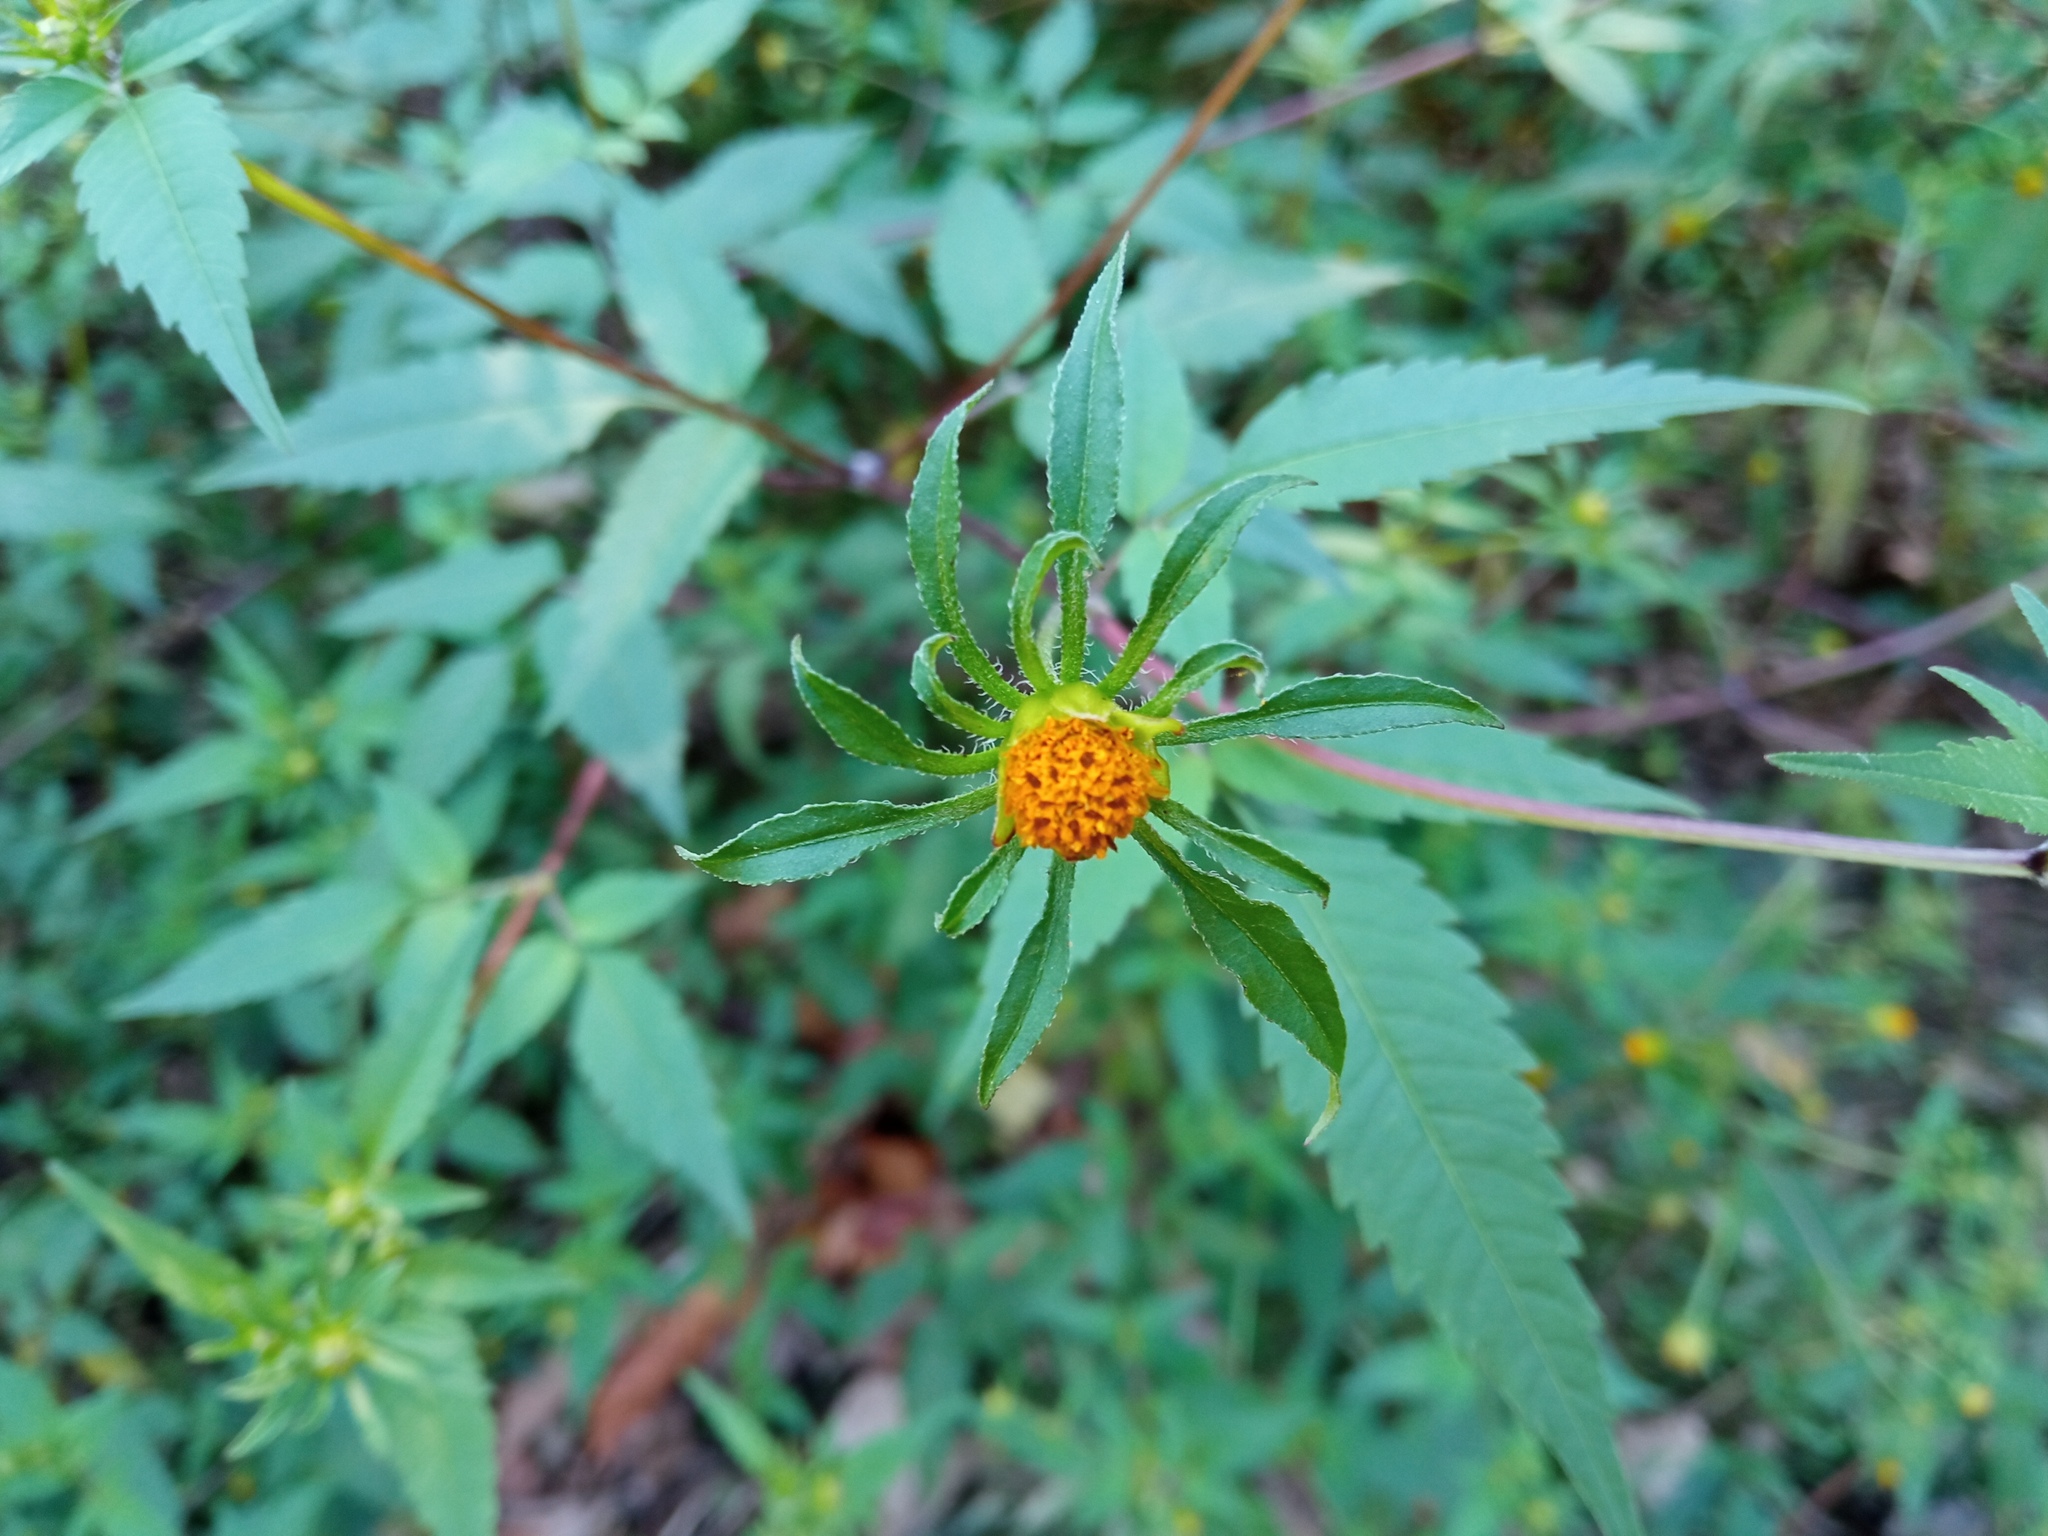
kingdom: Plantae
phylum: Tracheophyta
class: Magnoliopsida
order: Asterales
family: Asteraceae
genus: Bidens
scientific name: Bidens frondosa
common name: Beggarticks
